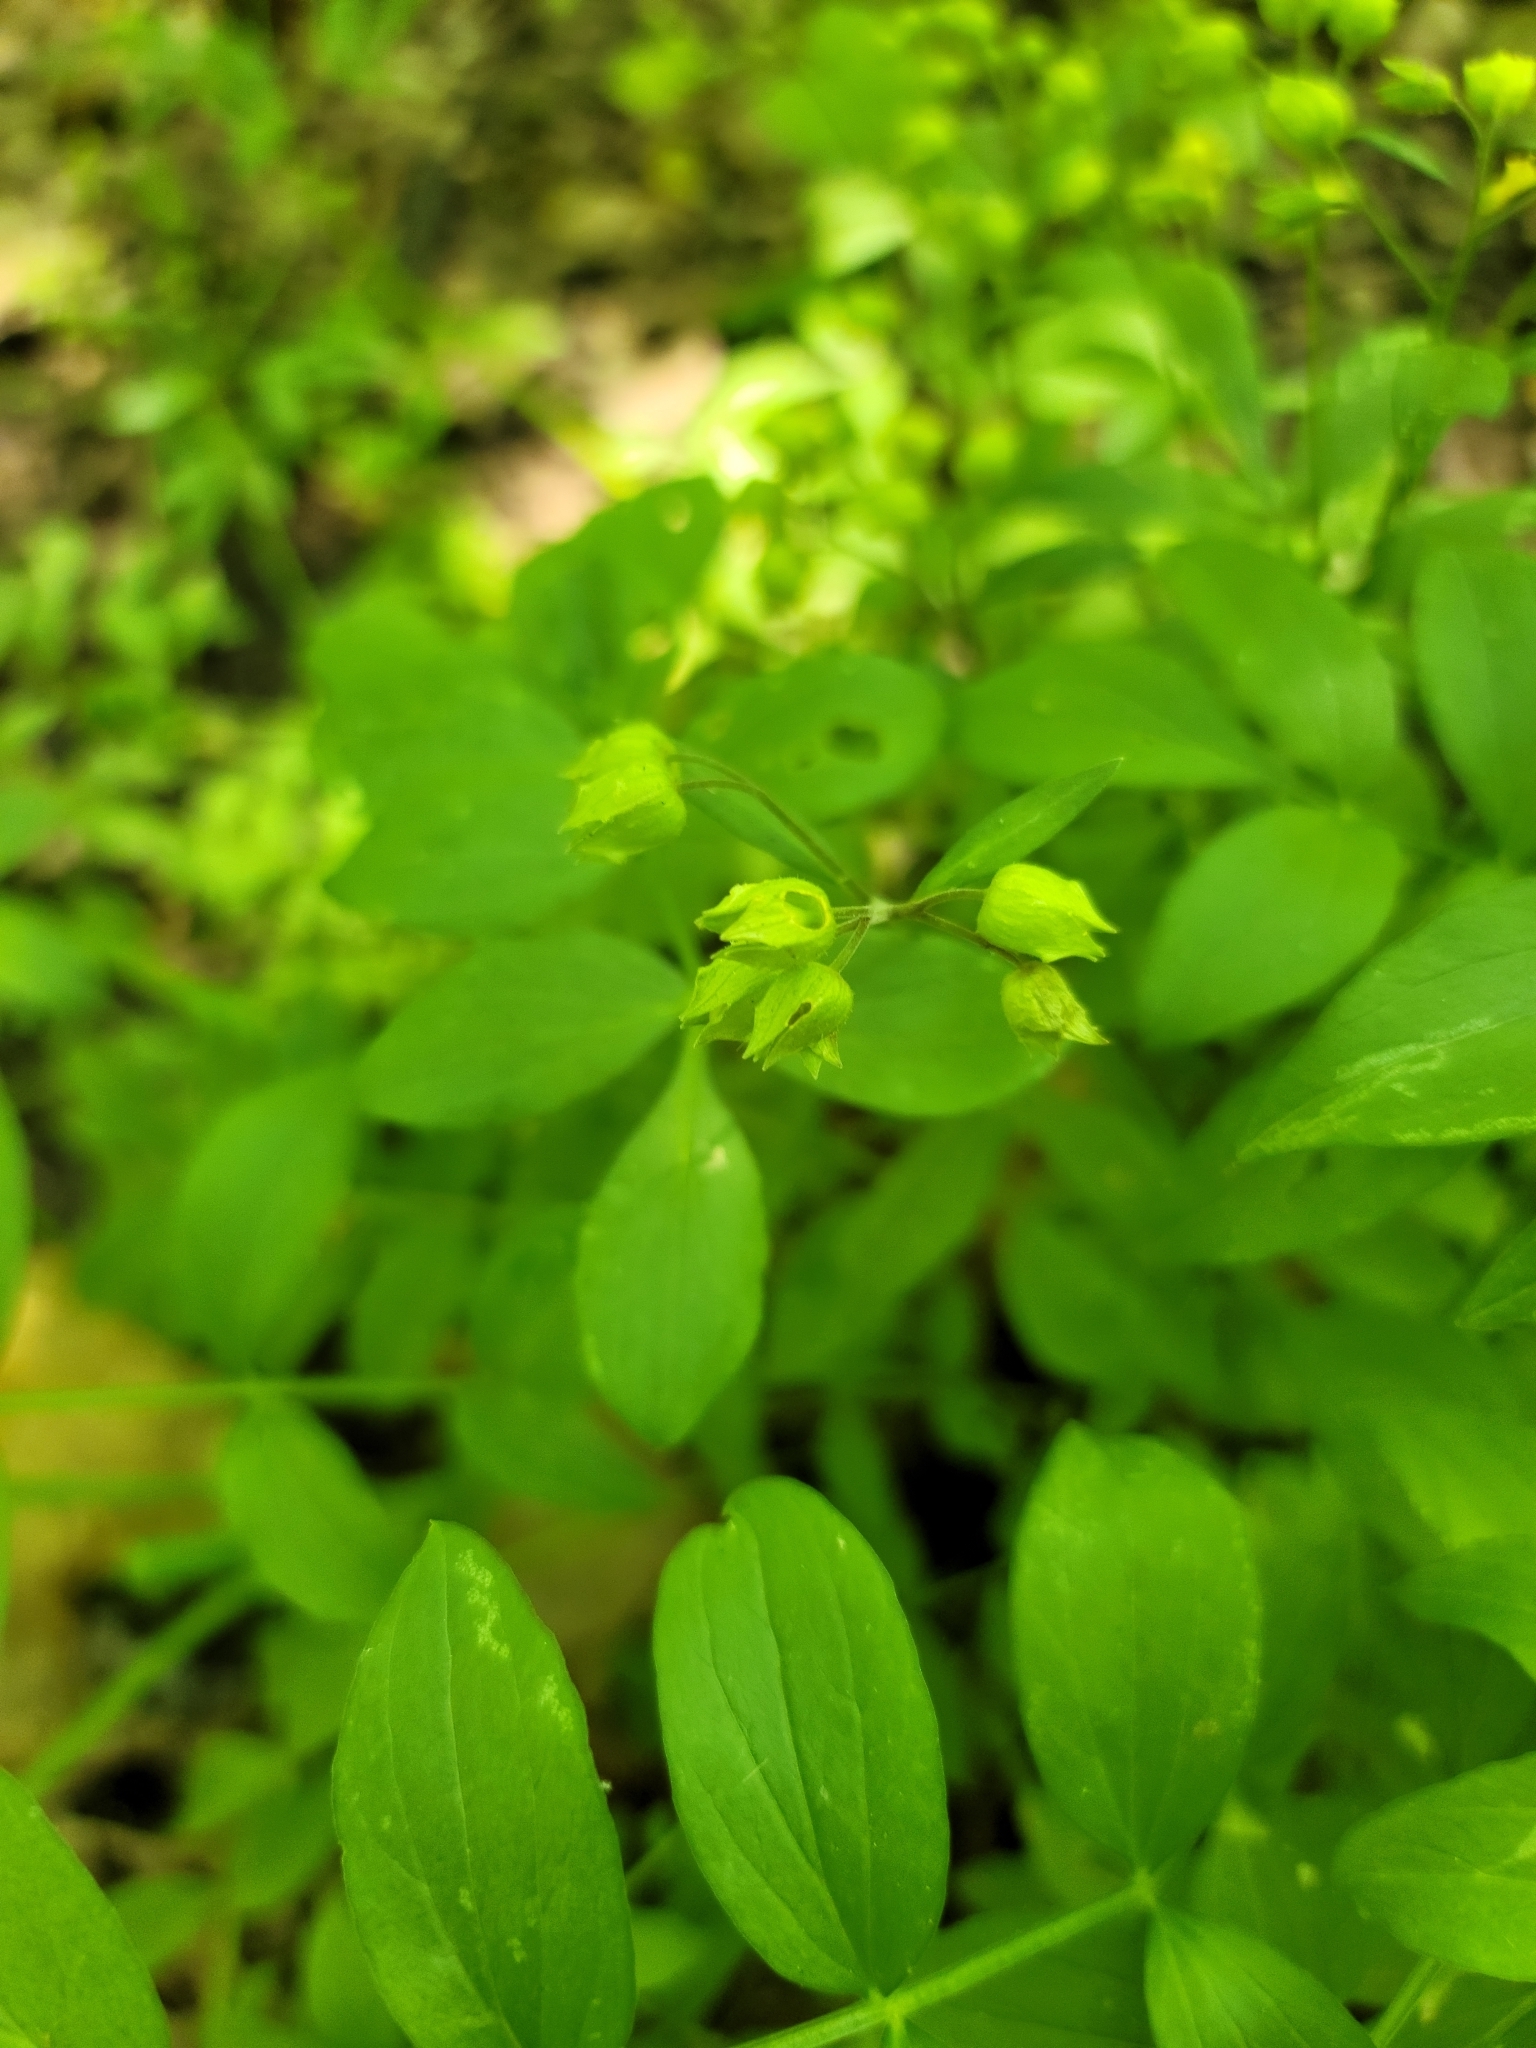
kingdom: Plantae
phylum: Tracheophyta
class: Magnoliopsida
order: Ericales
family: Polemoniaceae
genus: Polemonium
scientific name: Polemonium reptans
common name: Creeping jacob's-ladder
